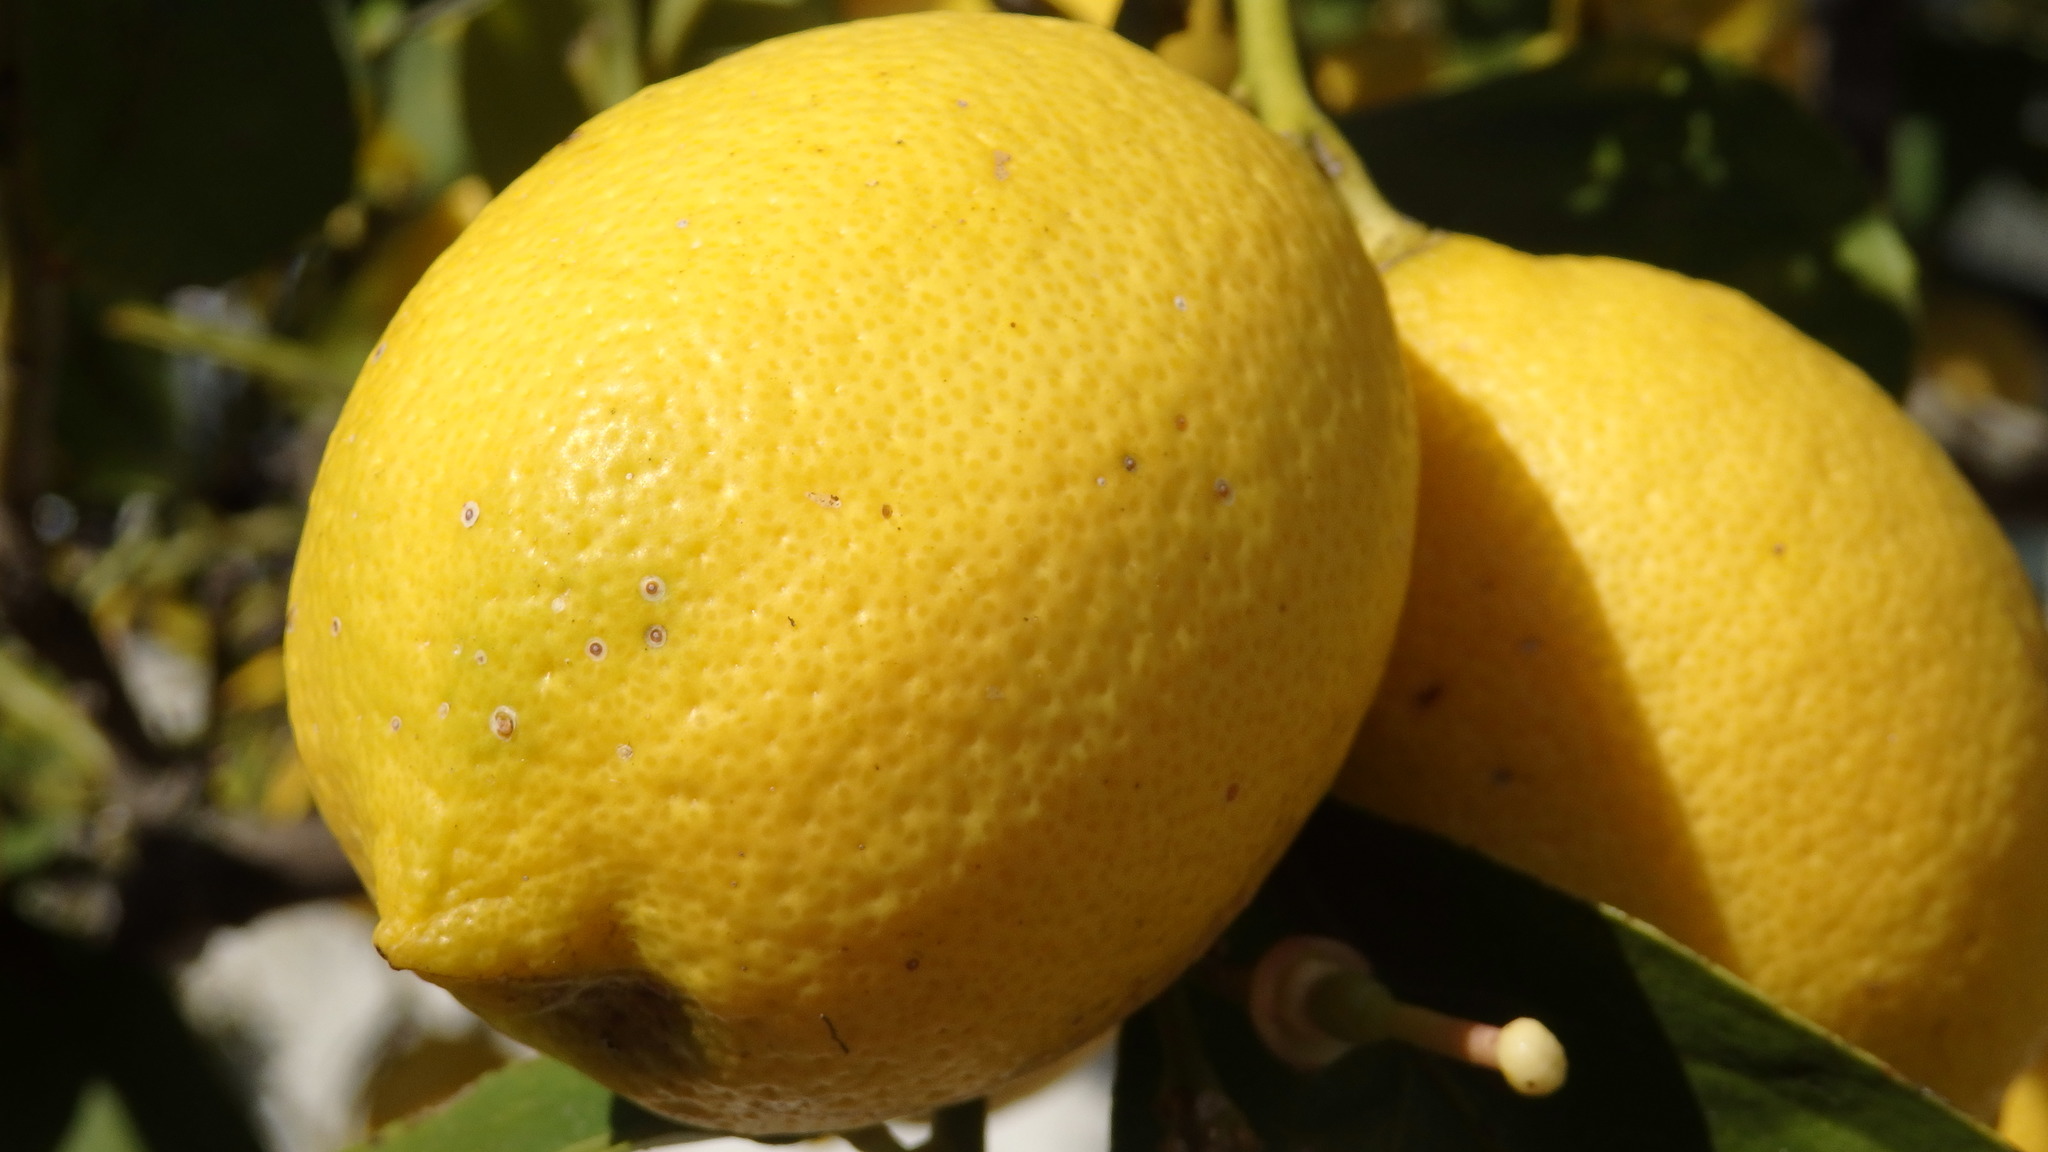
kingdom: Animalia
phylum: Arthropoda
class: Insecta
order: Hemiptera
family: Diaspididae
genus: Aonidiella
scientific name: Aonidiella aurantii
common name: California red scale
